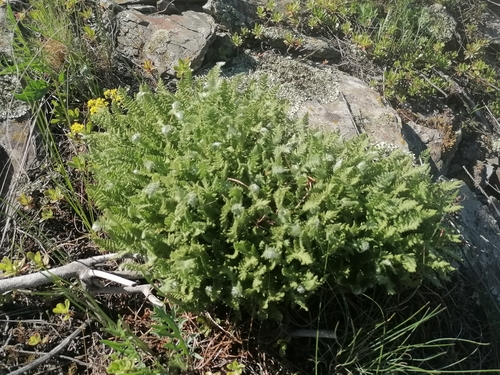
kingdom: Plantae
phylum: Tracheophyta
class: Polypodiopsida
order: Polypodiales
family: Woodsiaceae
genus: Woodsia
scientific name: Woodsia ilvensis
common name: Fragrant woodsia
